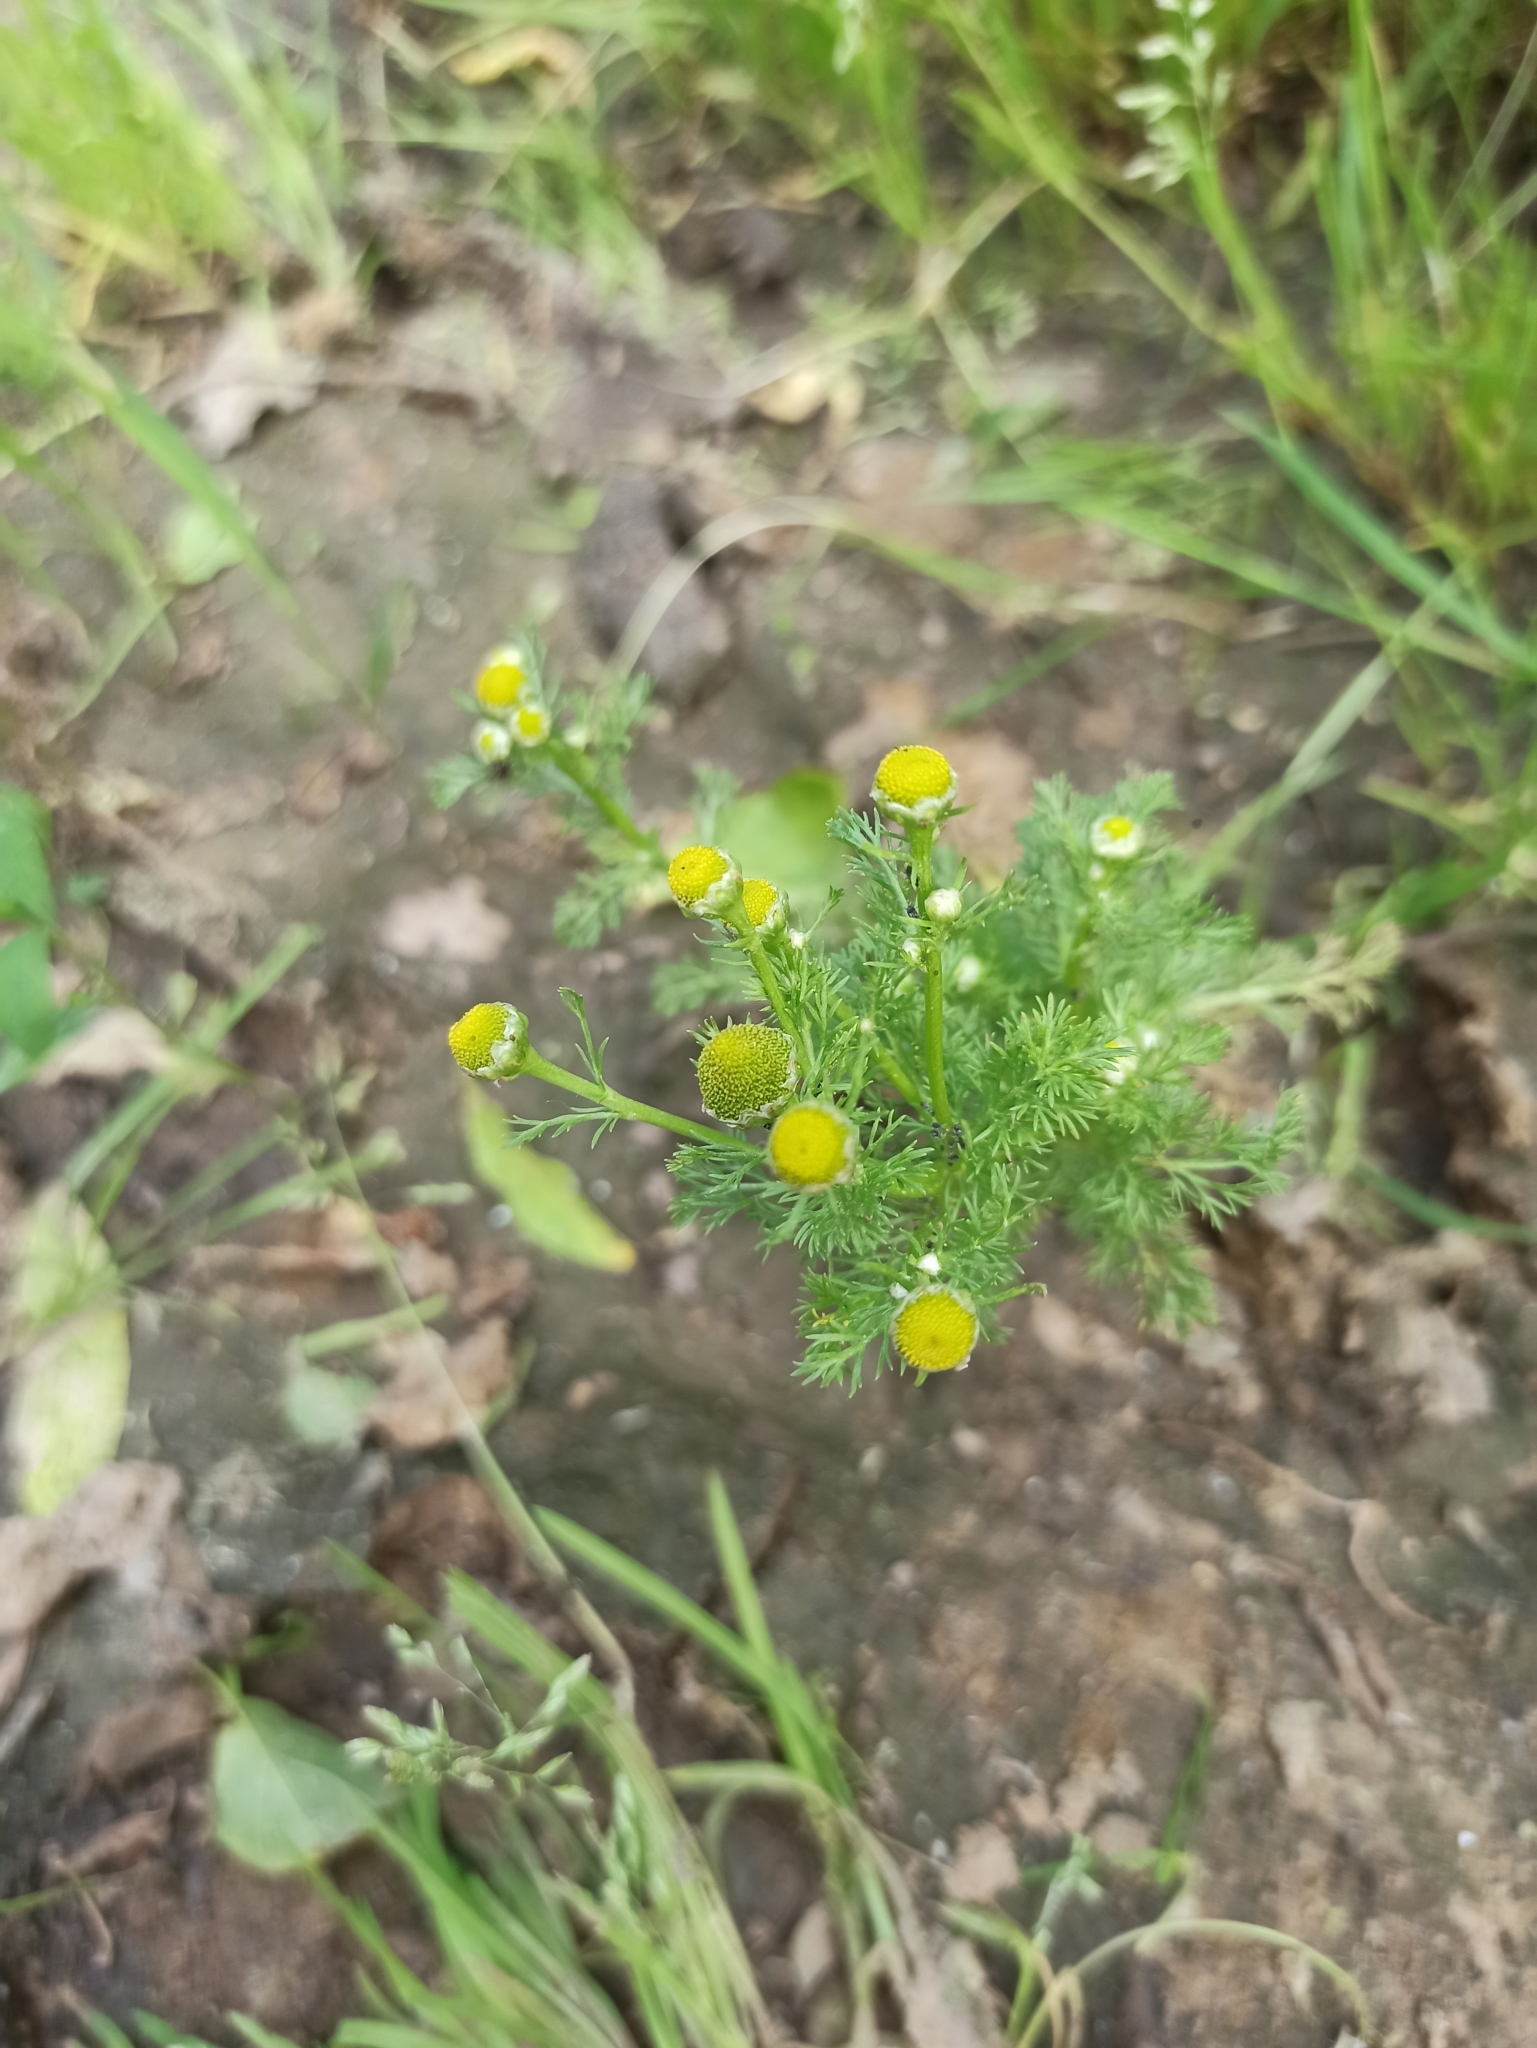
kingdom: Plantae
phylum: Tracheophyta
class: Magnoliopsida
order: Asterales
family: Asteraceae
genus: Matricaria
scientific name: Matricaria discoidea
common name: Disc mayweed
